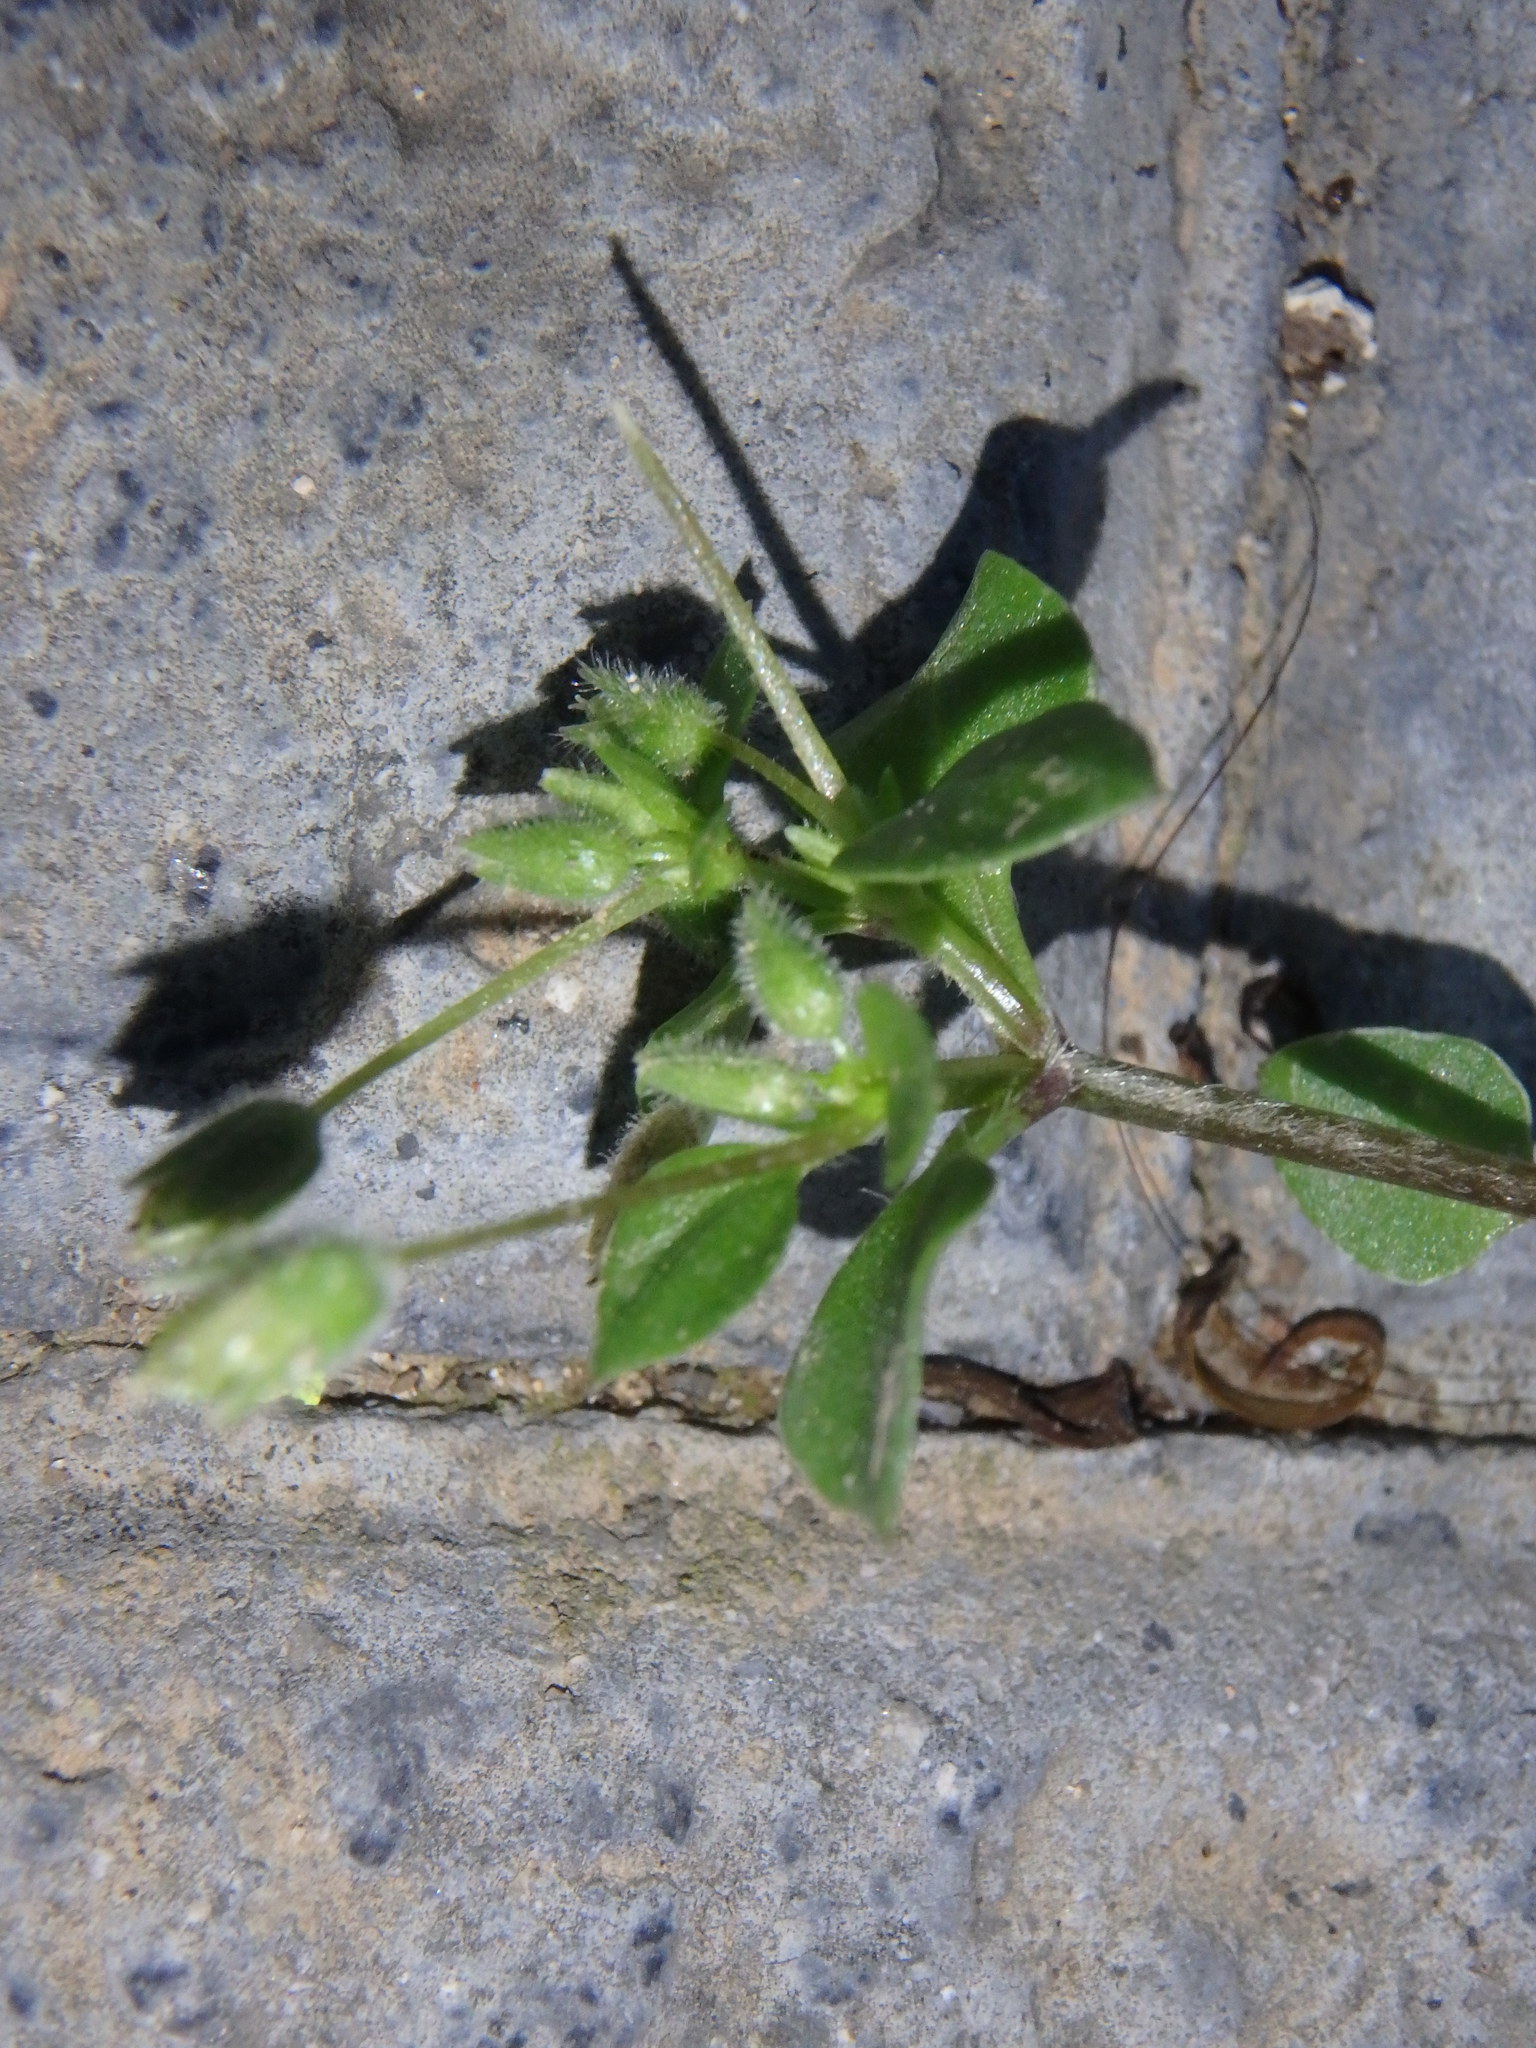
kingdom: Plantae
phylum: Tracheophyta
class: Magnoliopsida
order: Caryophyllales
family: Caryophyllaceae
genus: Stellaria
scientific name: Stellaria media
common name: Common chickweed
